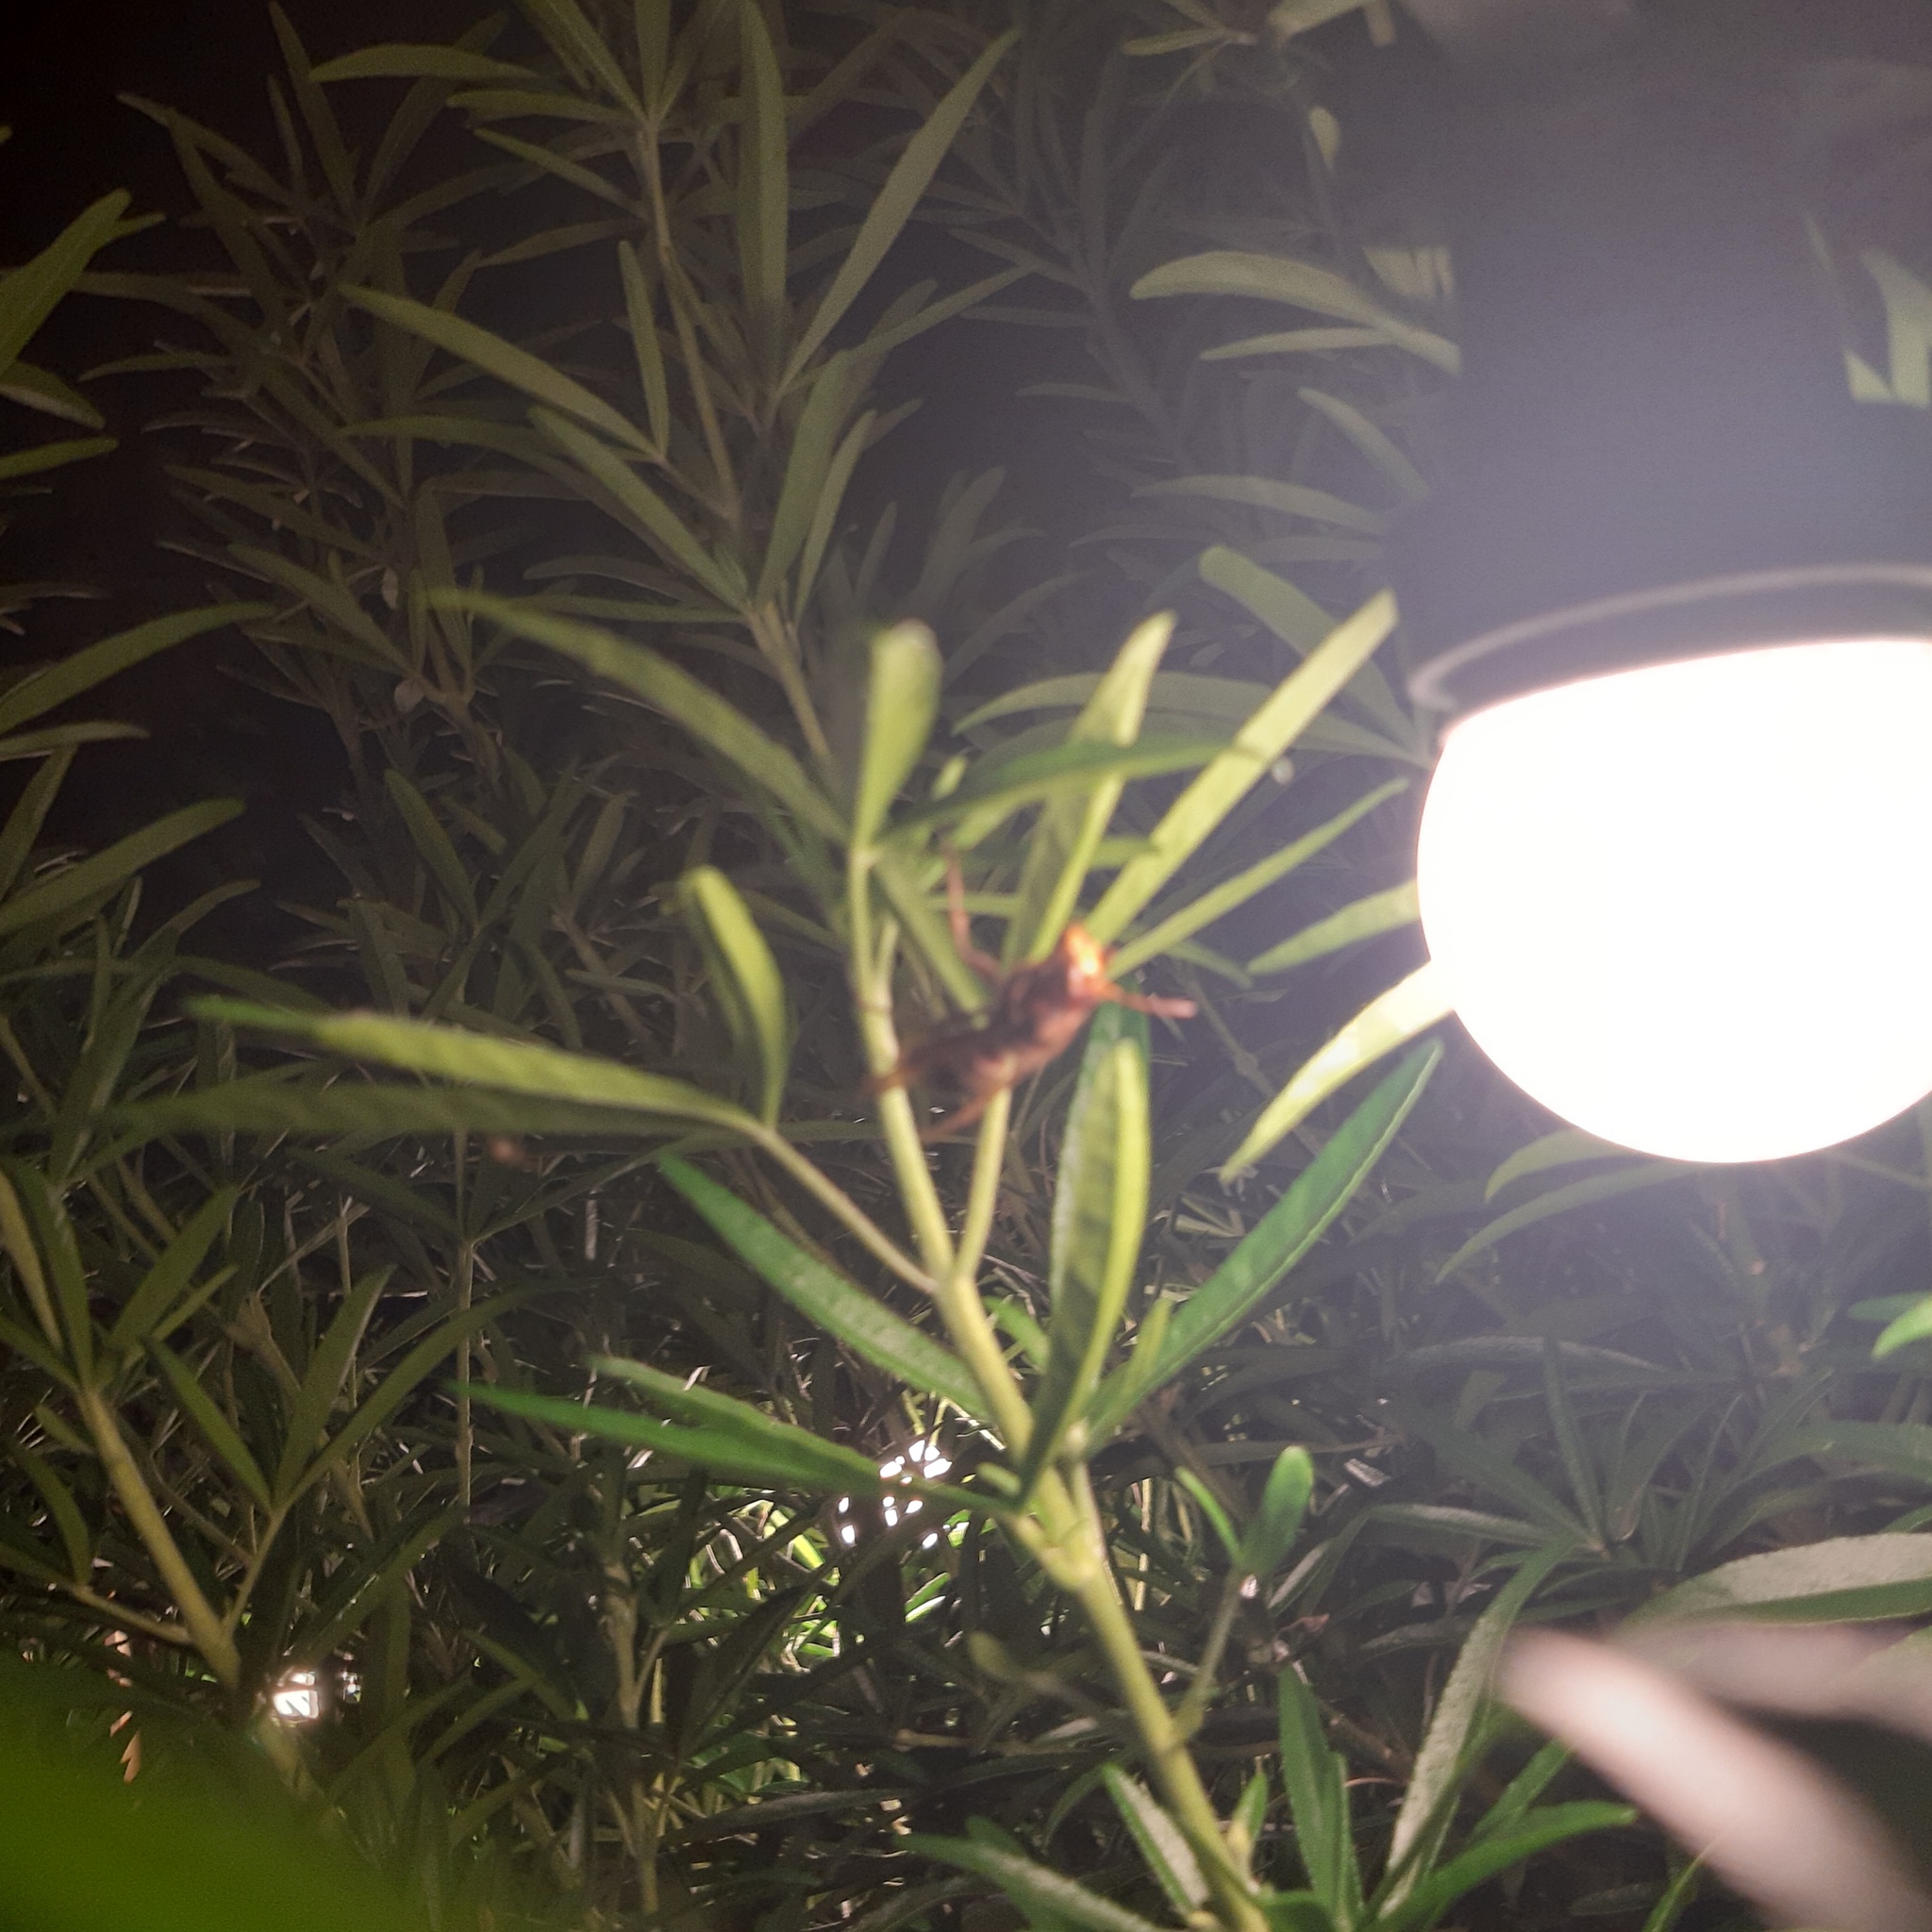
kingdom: Animalia
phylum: Arthropoda
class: Insecta
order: Hymenoptera
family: Vespidae
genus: Vespa
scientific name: Vespa crabro
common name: Hornet
